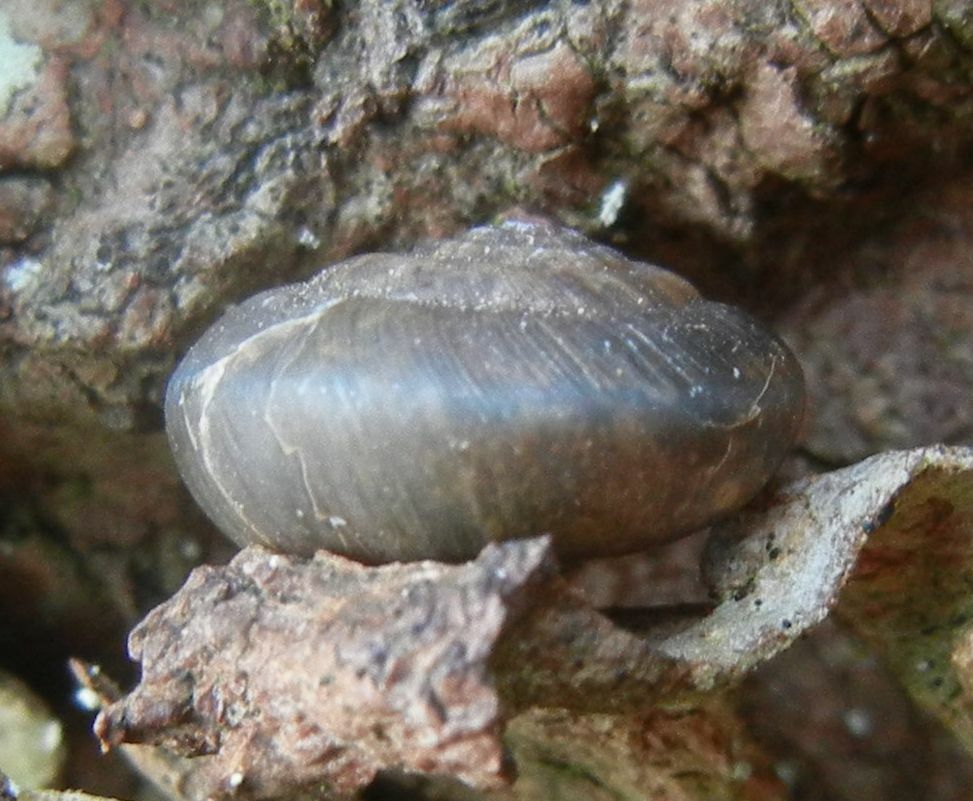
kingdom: Animalia
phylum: Mollusca
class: Gastropoda
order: Stylommatophora
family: Hygromiidae
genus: Trochulus
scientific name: Trochulus striolatus
